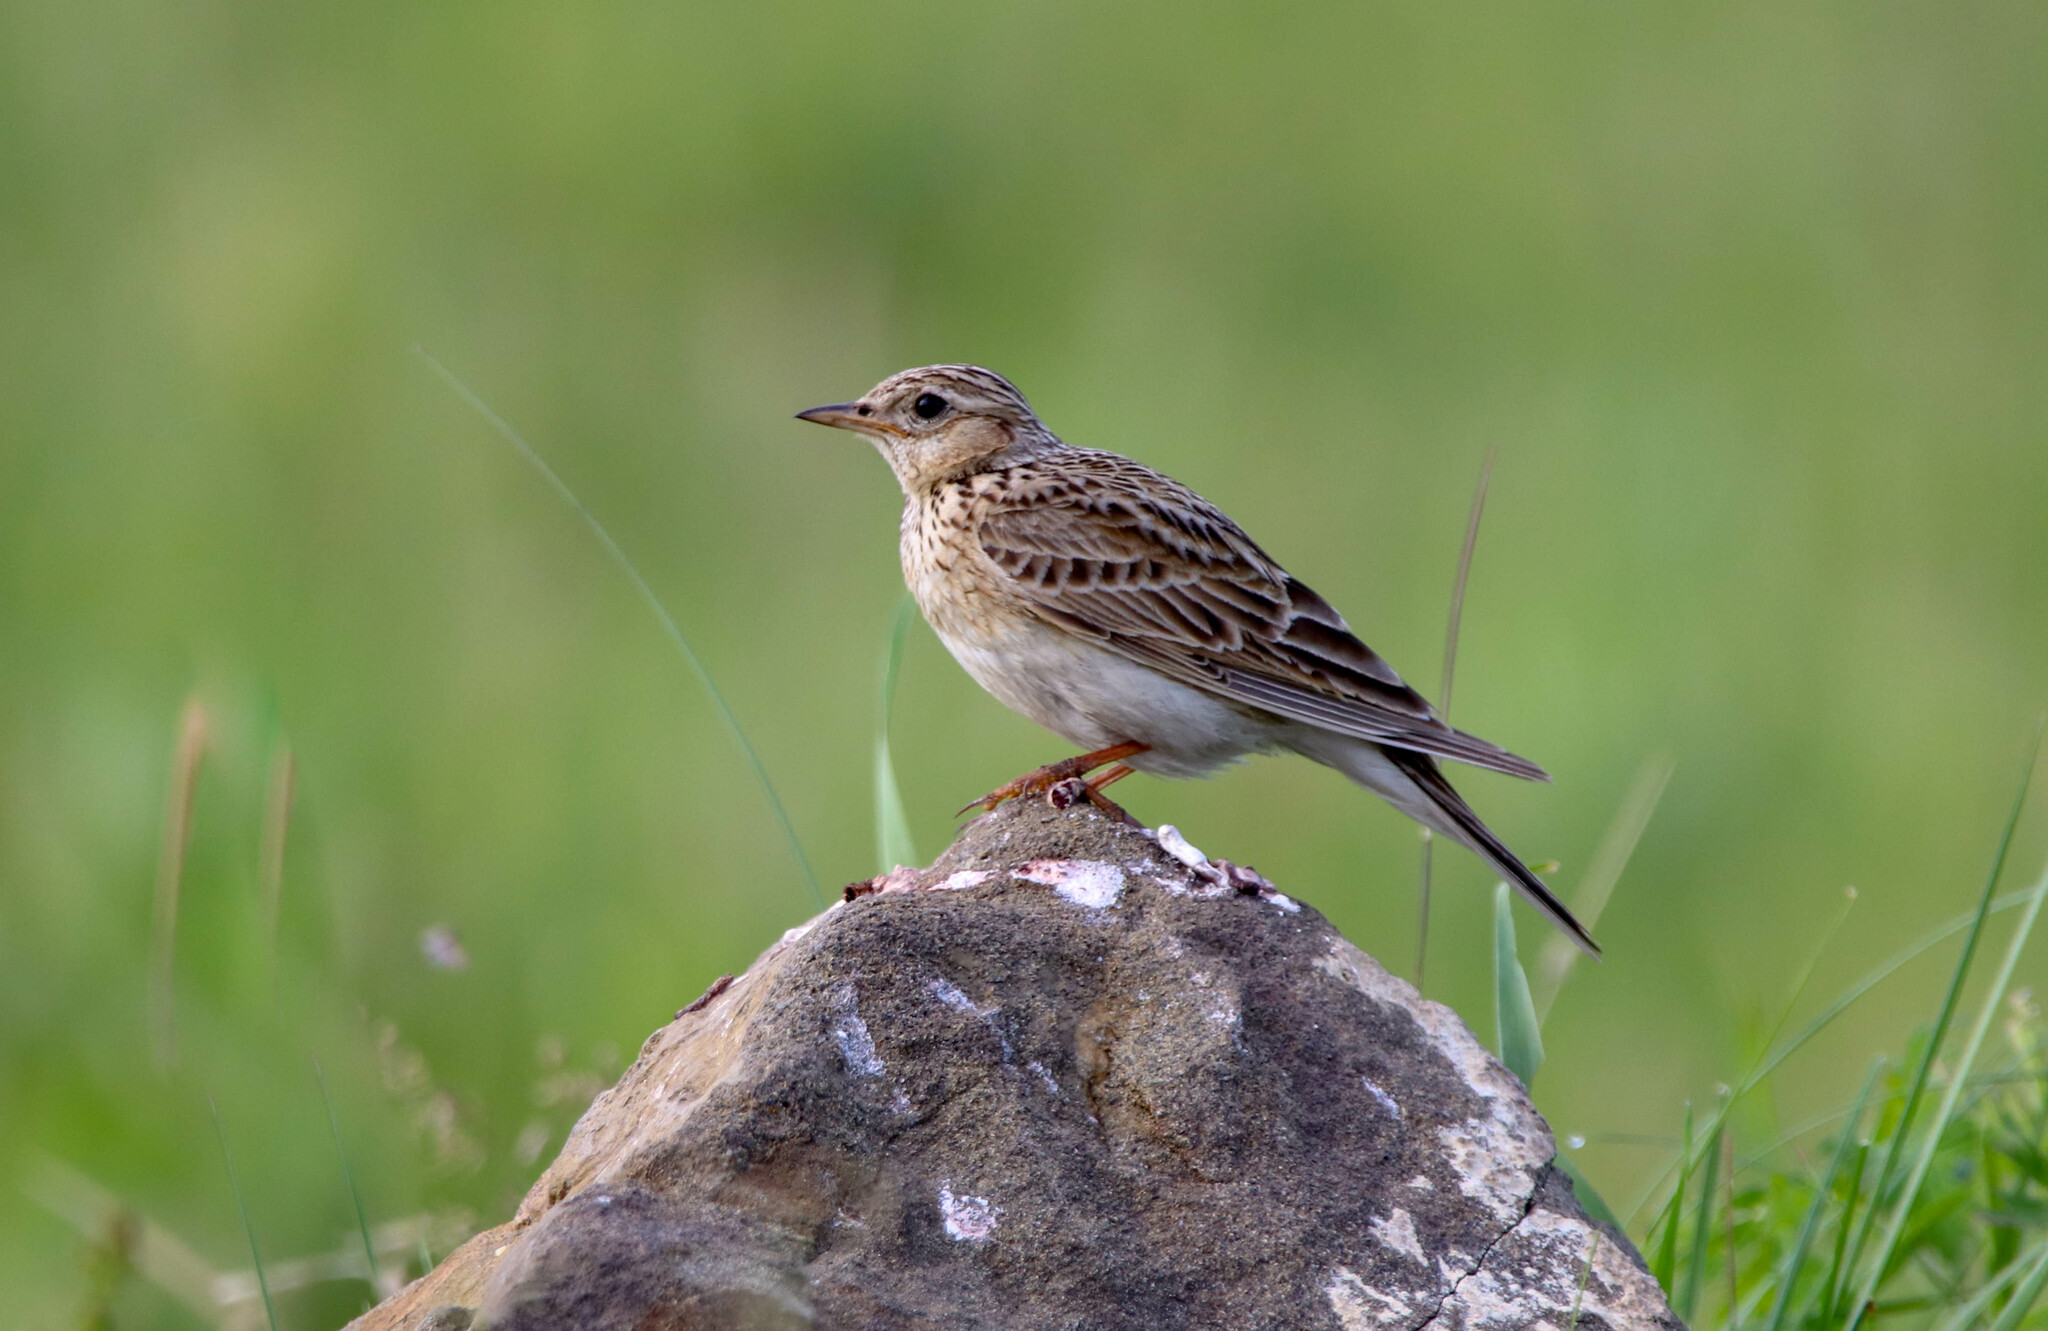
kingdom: Animalia
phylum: Chordata
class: Aves
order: Passeriformes
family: Alaudidae
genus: Alauda
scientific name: Alauda arvensis
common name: Eurasian skylark
